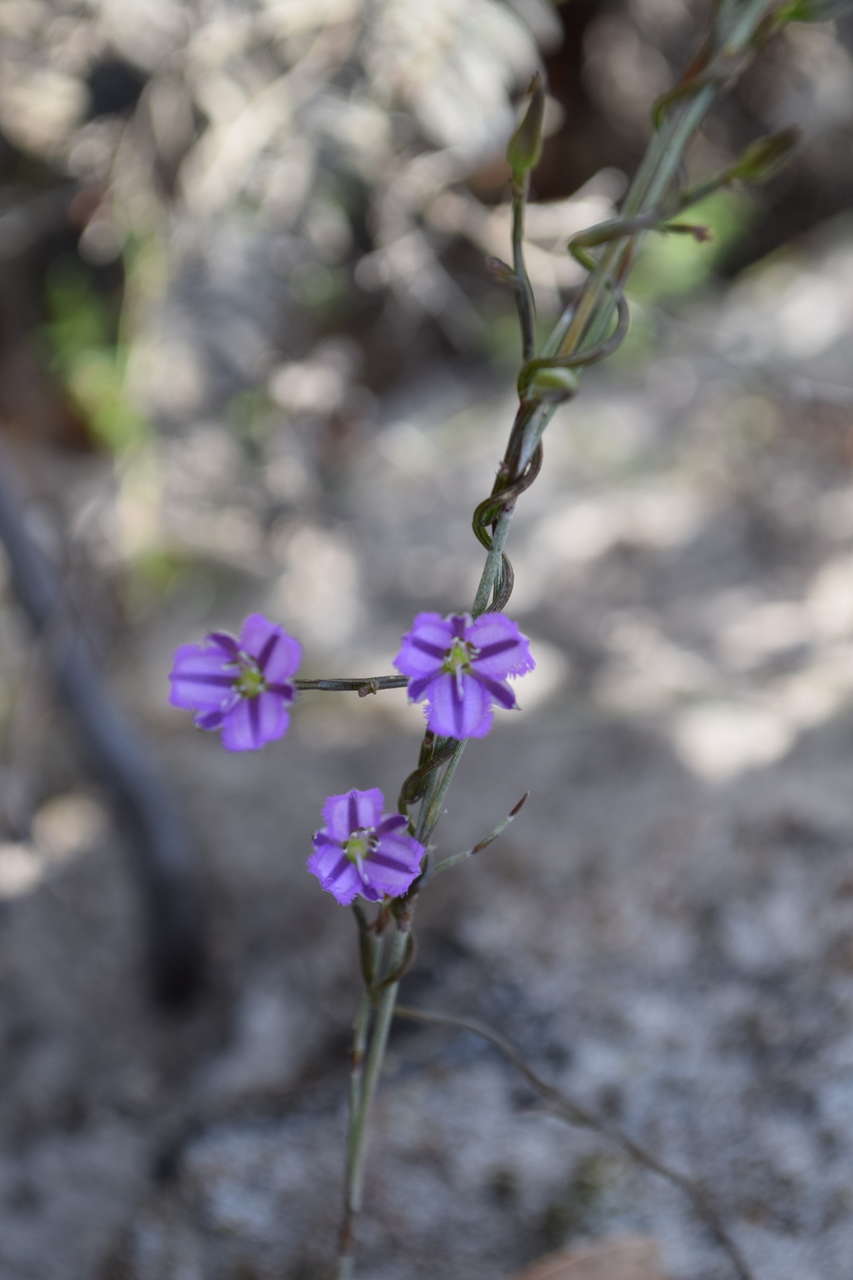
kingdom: Plantae
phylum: Tracheophyta
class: Liliopsida
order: Asparagales
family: Asparagaceae
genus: Thysanotus
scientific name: Thysanotus patersonii
